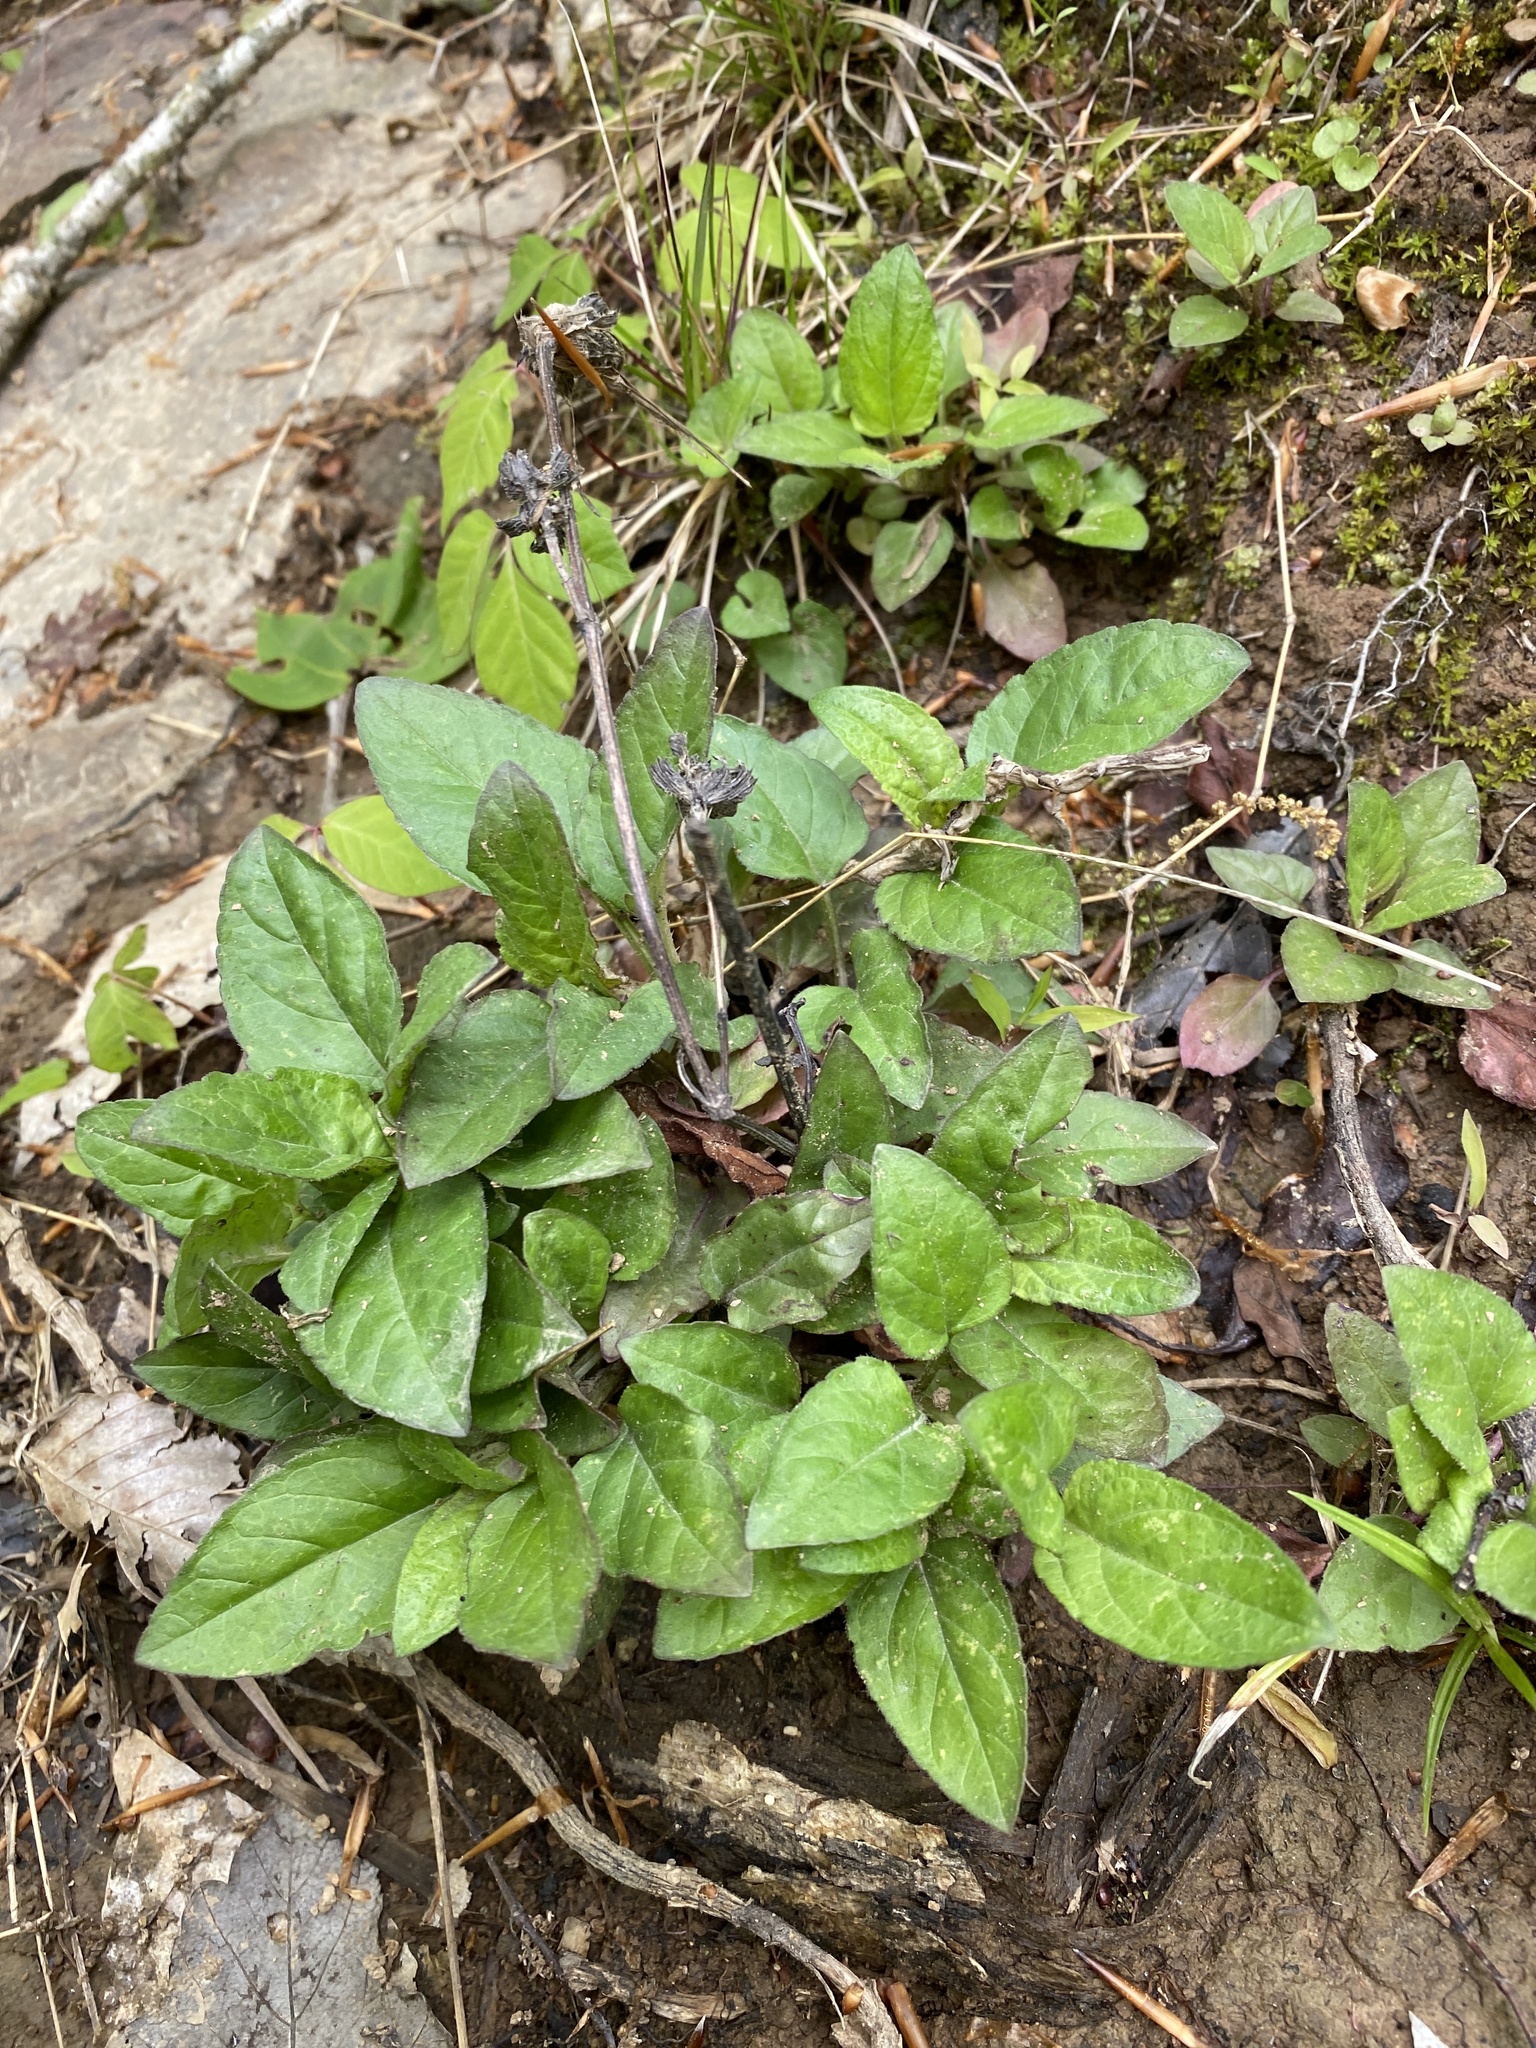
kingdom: Plantae
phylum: Tracheophyta
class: Magnoliopsida
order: Lamiales
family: Lamiaceae
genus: Prunella
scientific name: Prunella vulgaris
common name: Heal-all
